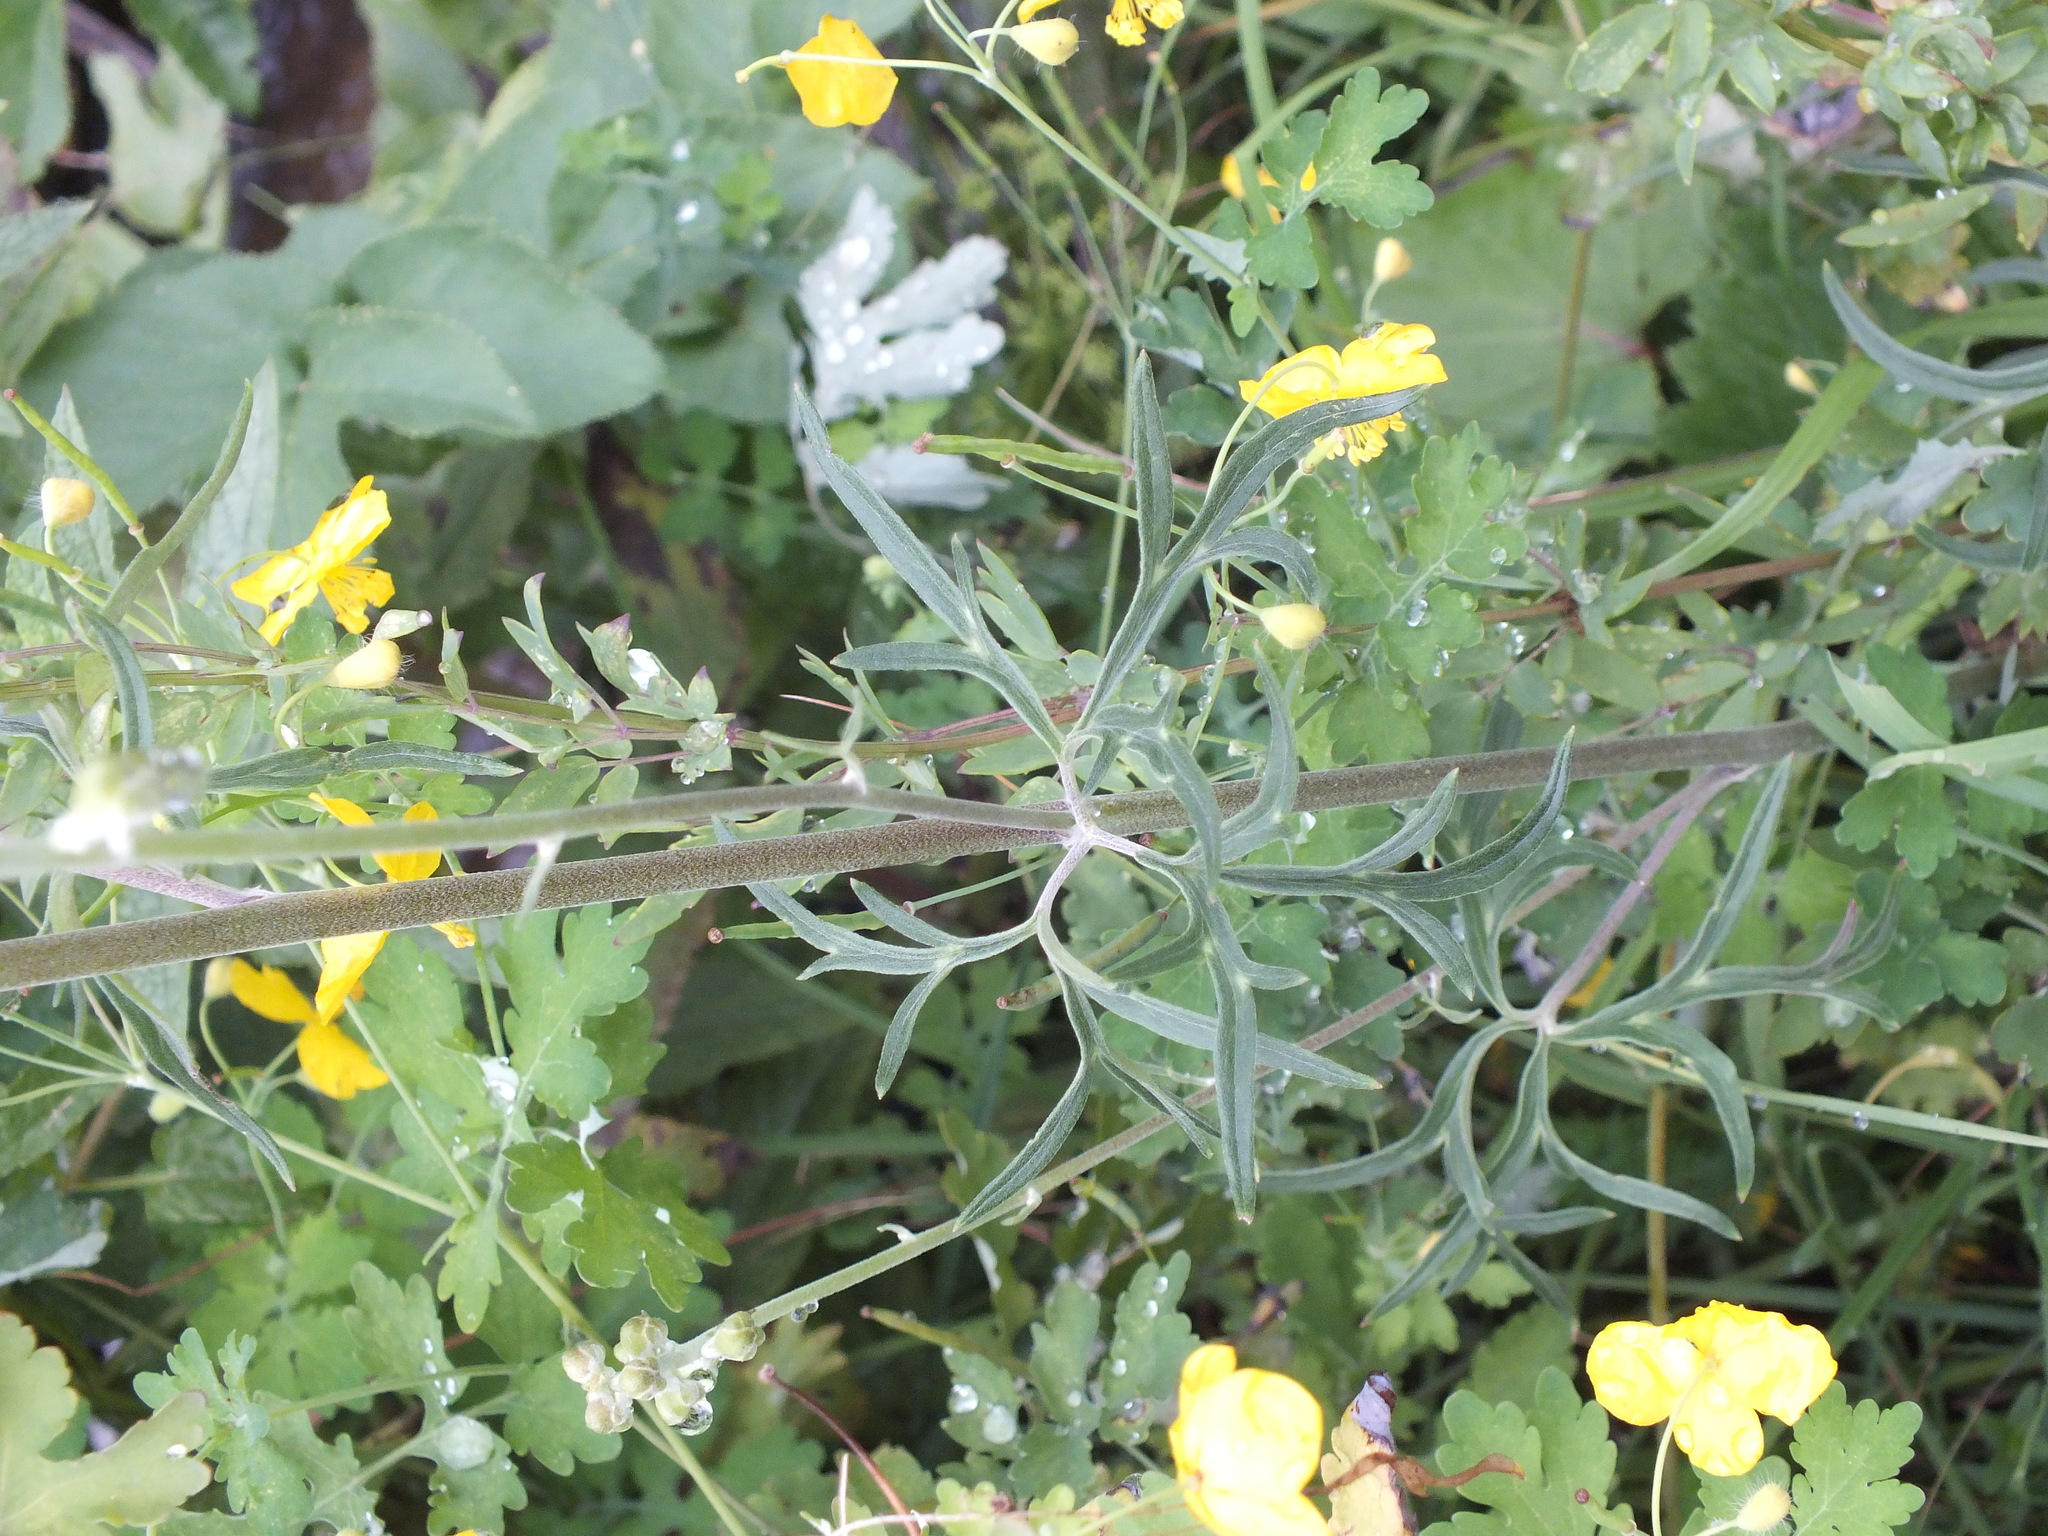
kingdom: Plantae
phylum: Tracheophyta
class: Magnoliopsida
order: Ranunculales
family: Ranunculaceae
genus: Aconitum
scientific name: Aconitum barbatum
